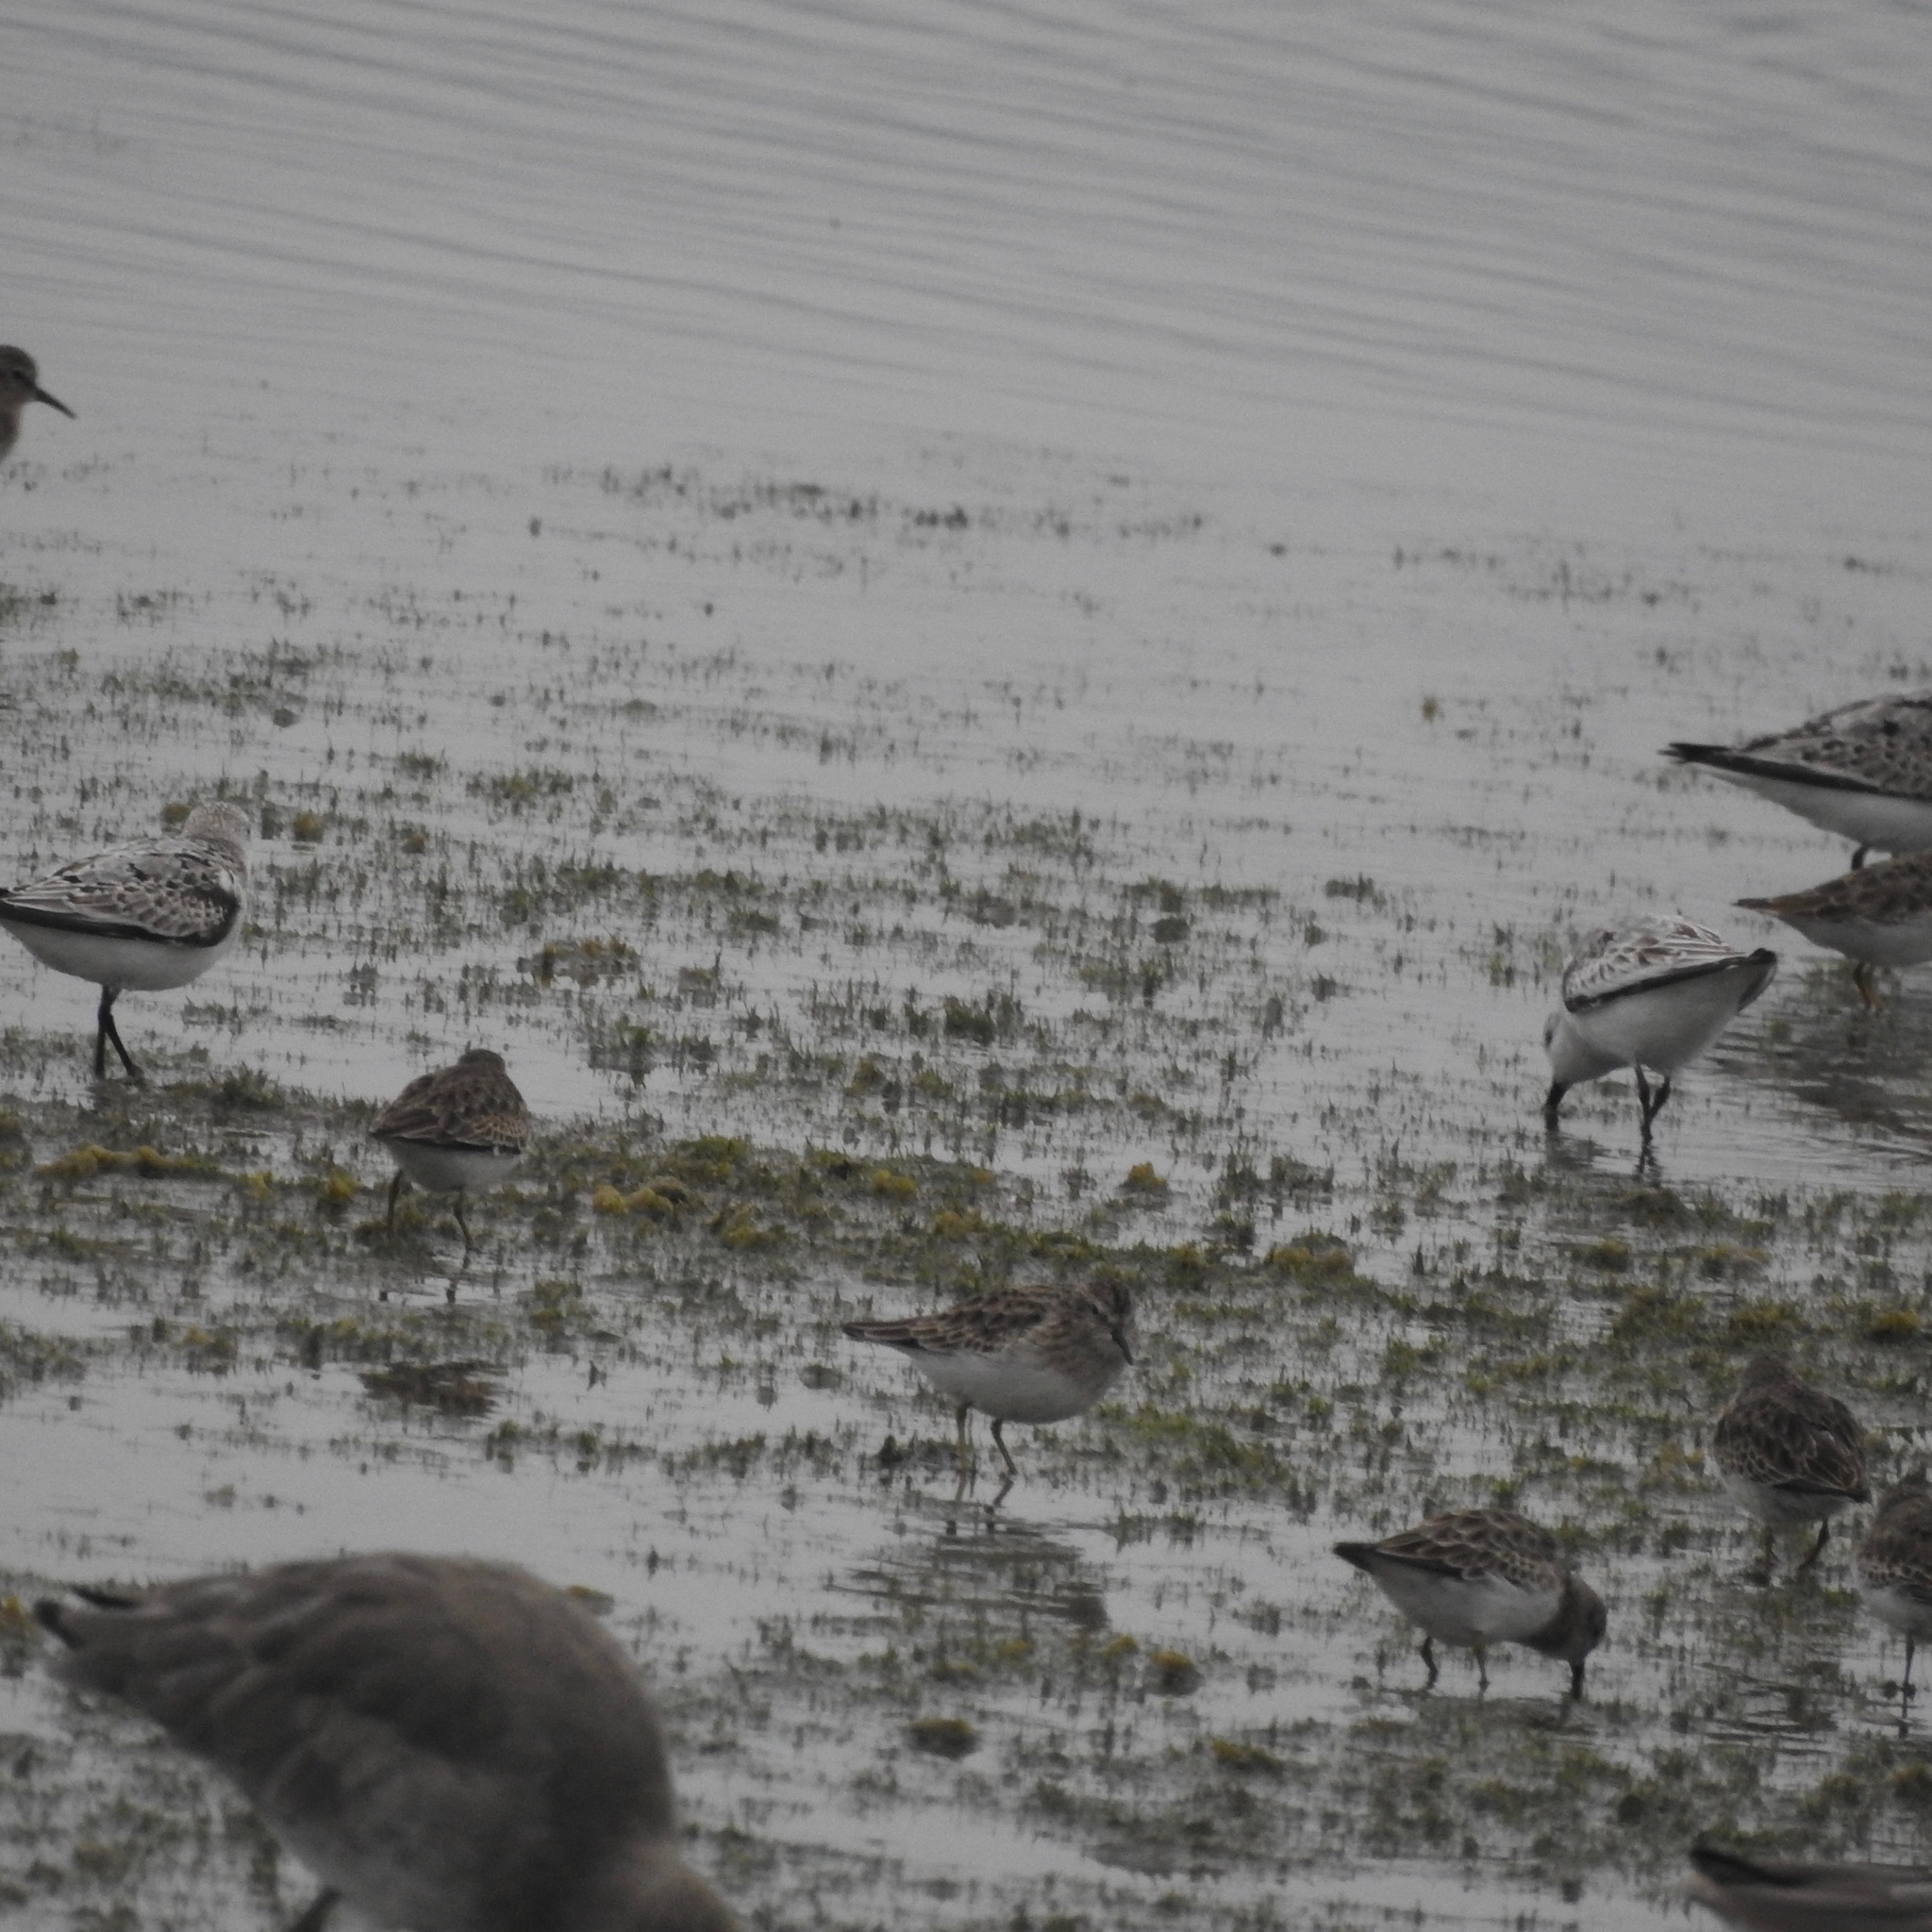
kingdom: Animalia
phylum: Chordata
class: Aves
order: Charadriiformes
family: Scolopacidae
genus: Calidris
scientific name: Calidris minutilla
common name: Least sandpiper
